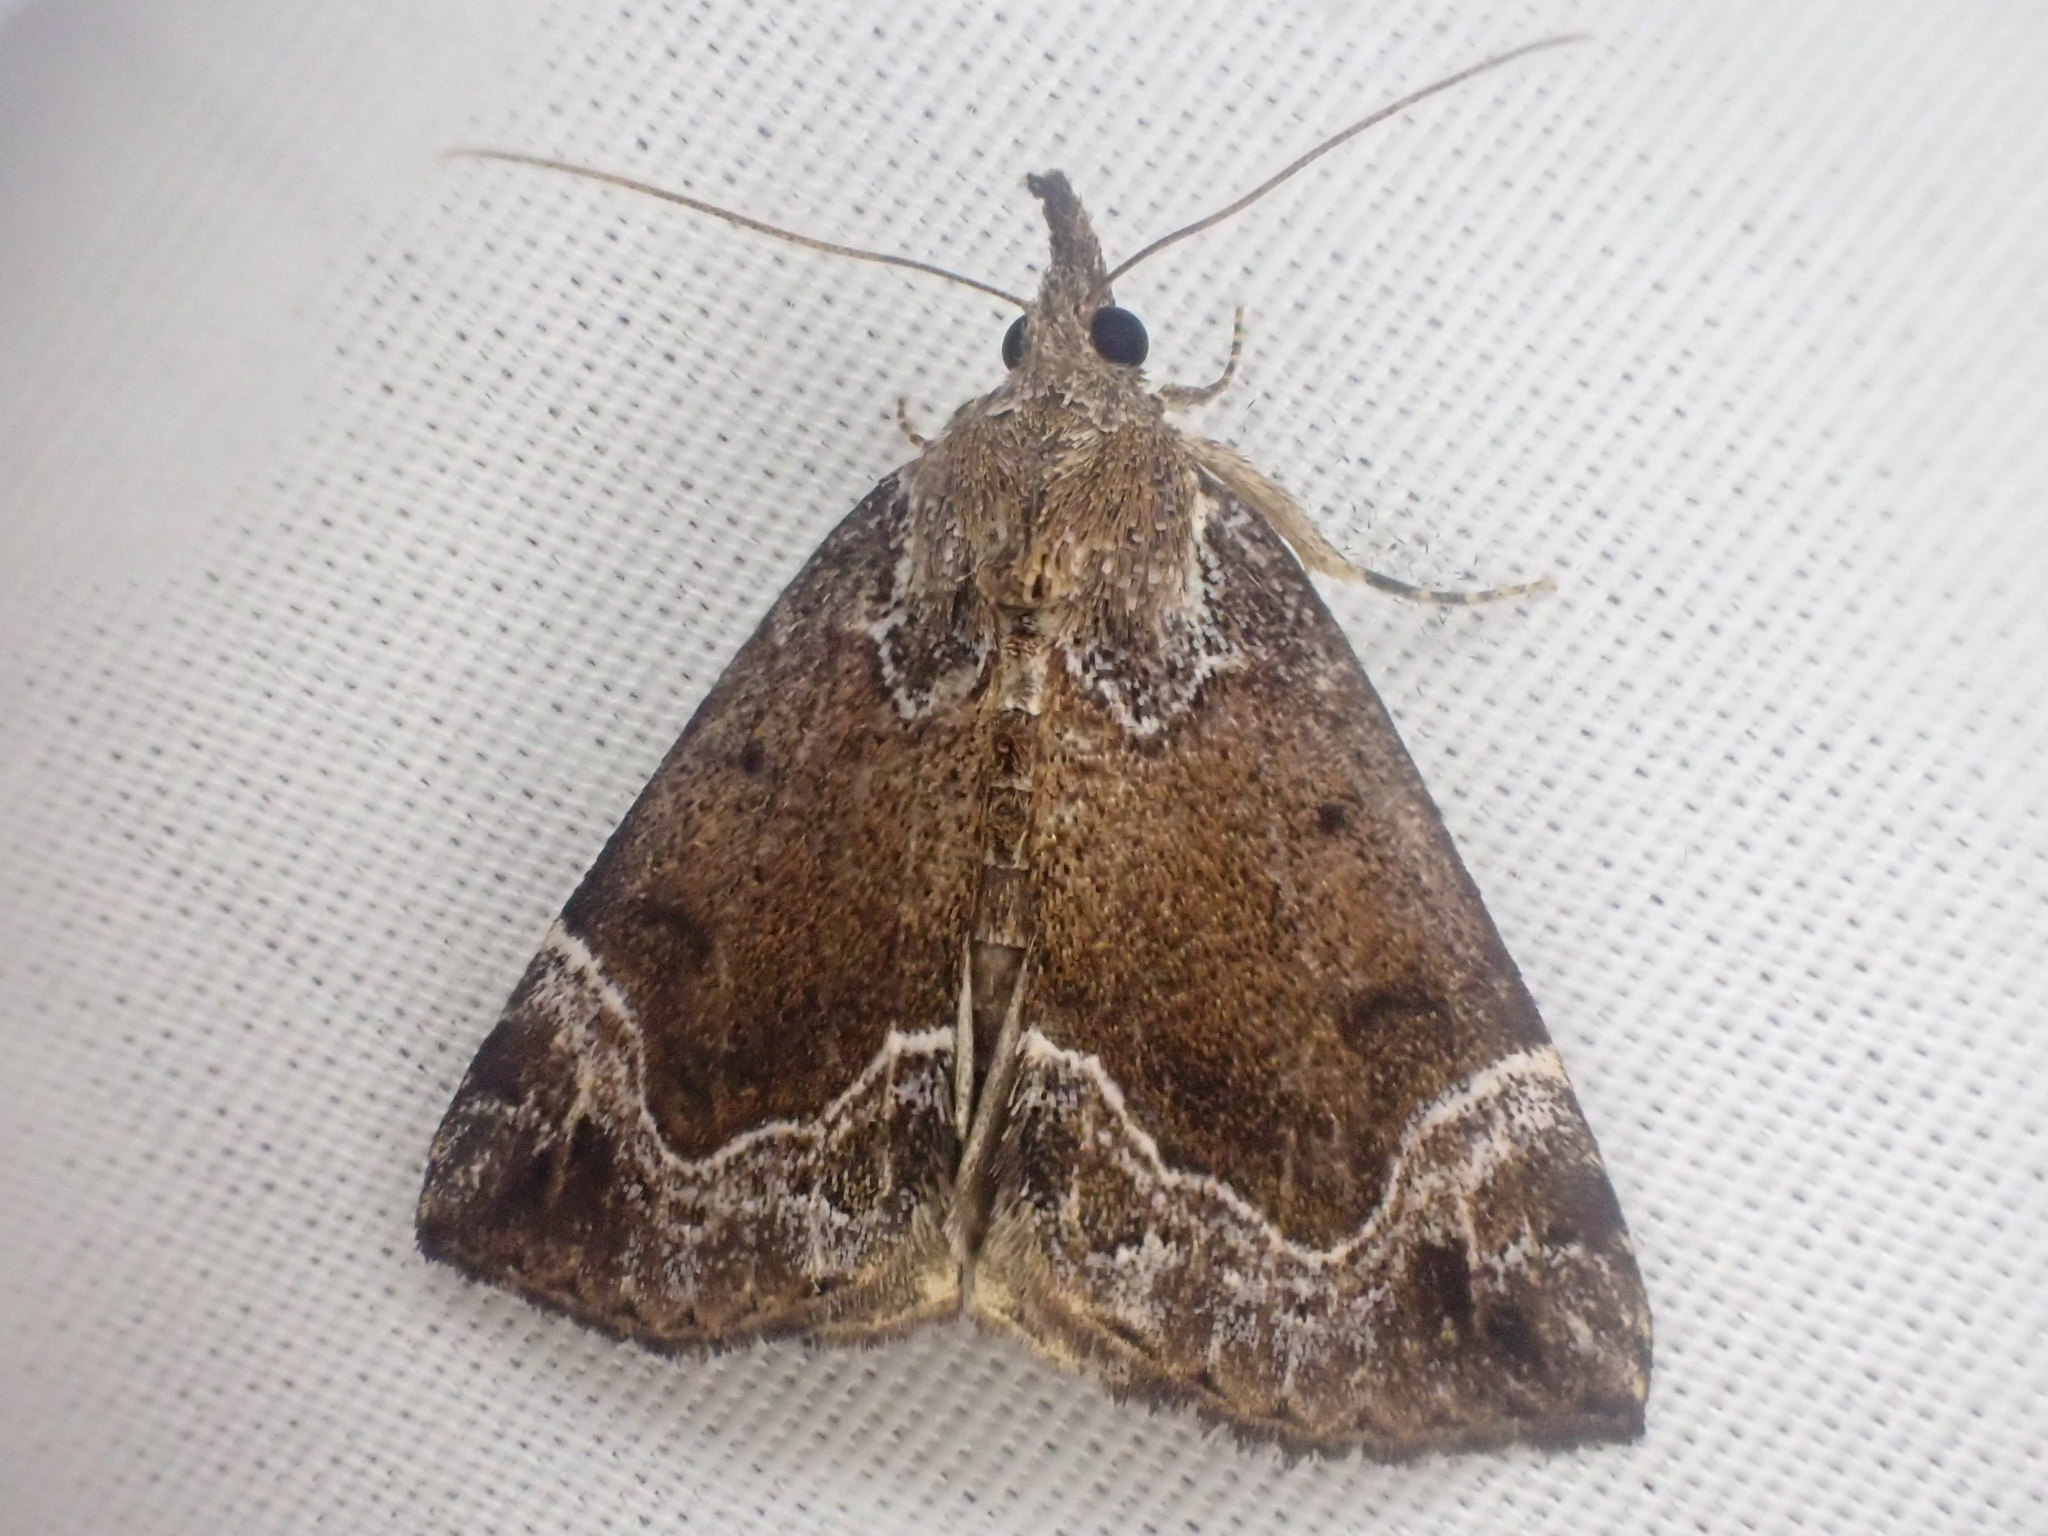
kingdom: Animalia
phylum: Arthropoda
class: Insecta
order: Lepidoptera
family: Erebidae
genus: Hypena
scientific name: Hypena abalienalis
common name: White-lined snout
